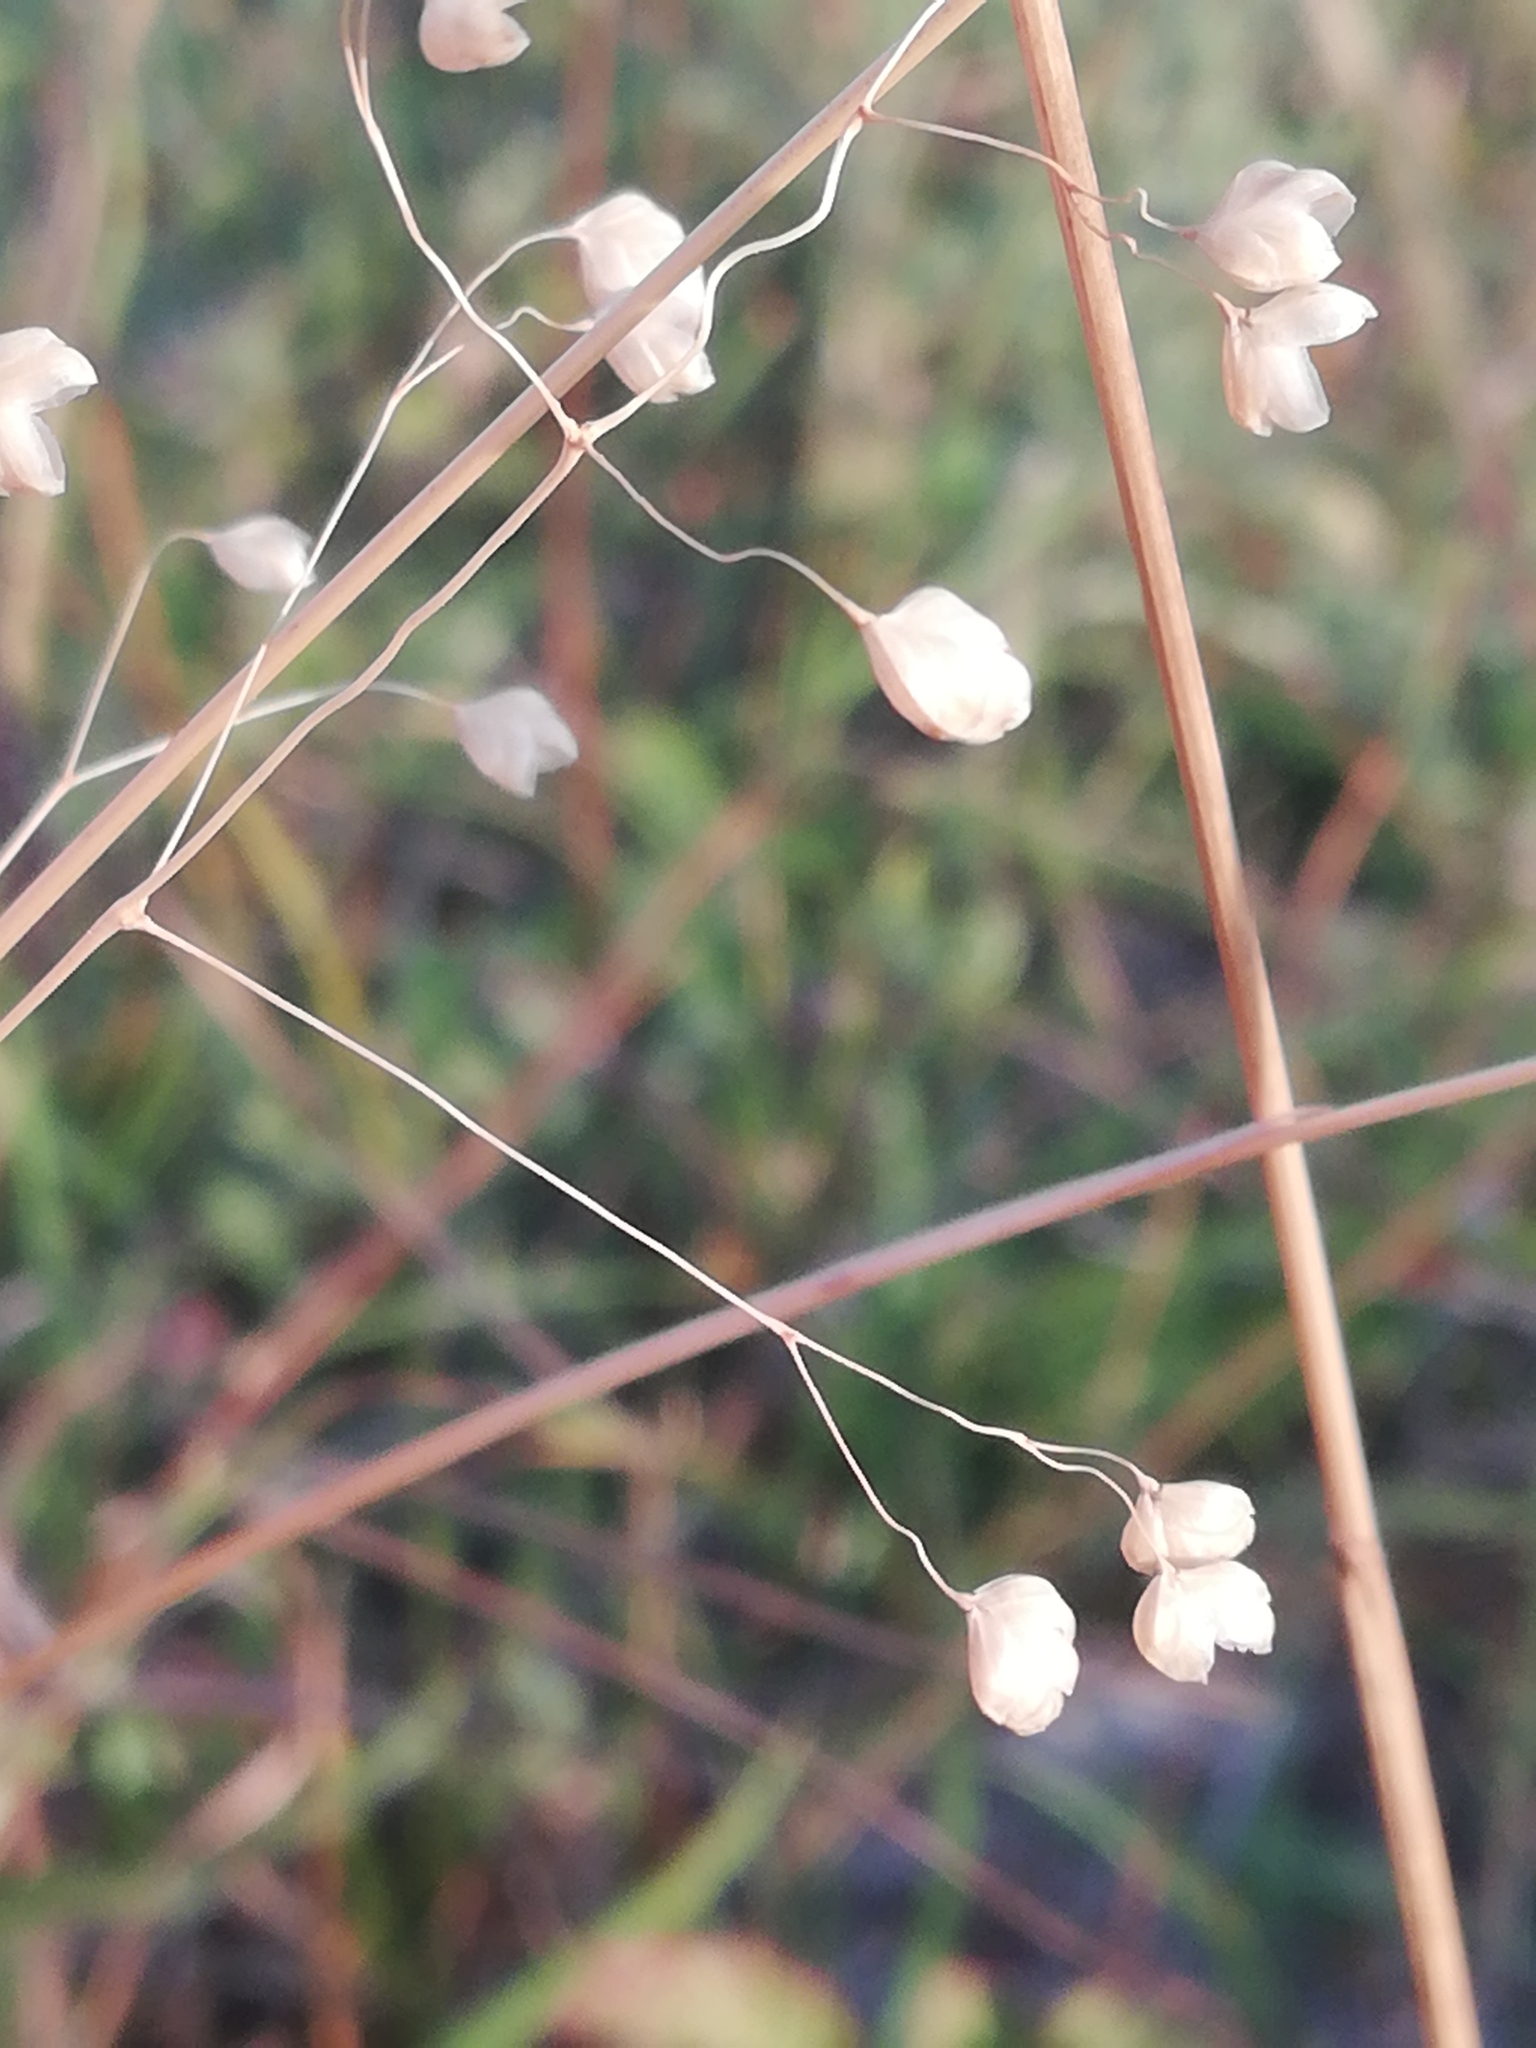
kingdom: Plantae
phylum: Tracheophyta
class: Liliopsida
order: Poales
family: Poaceae
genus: Briza
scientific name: Briza media
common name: Quaking grass
